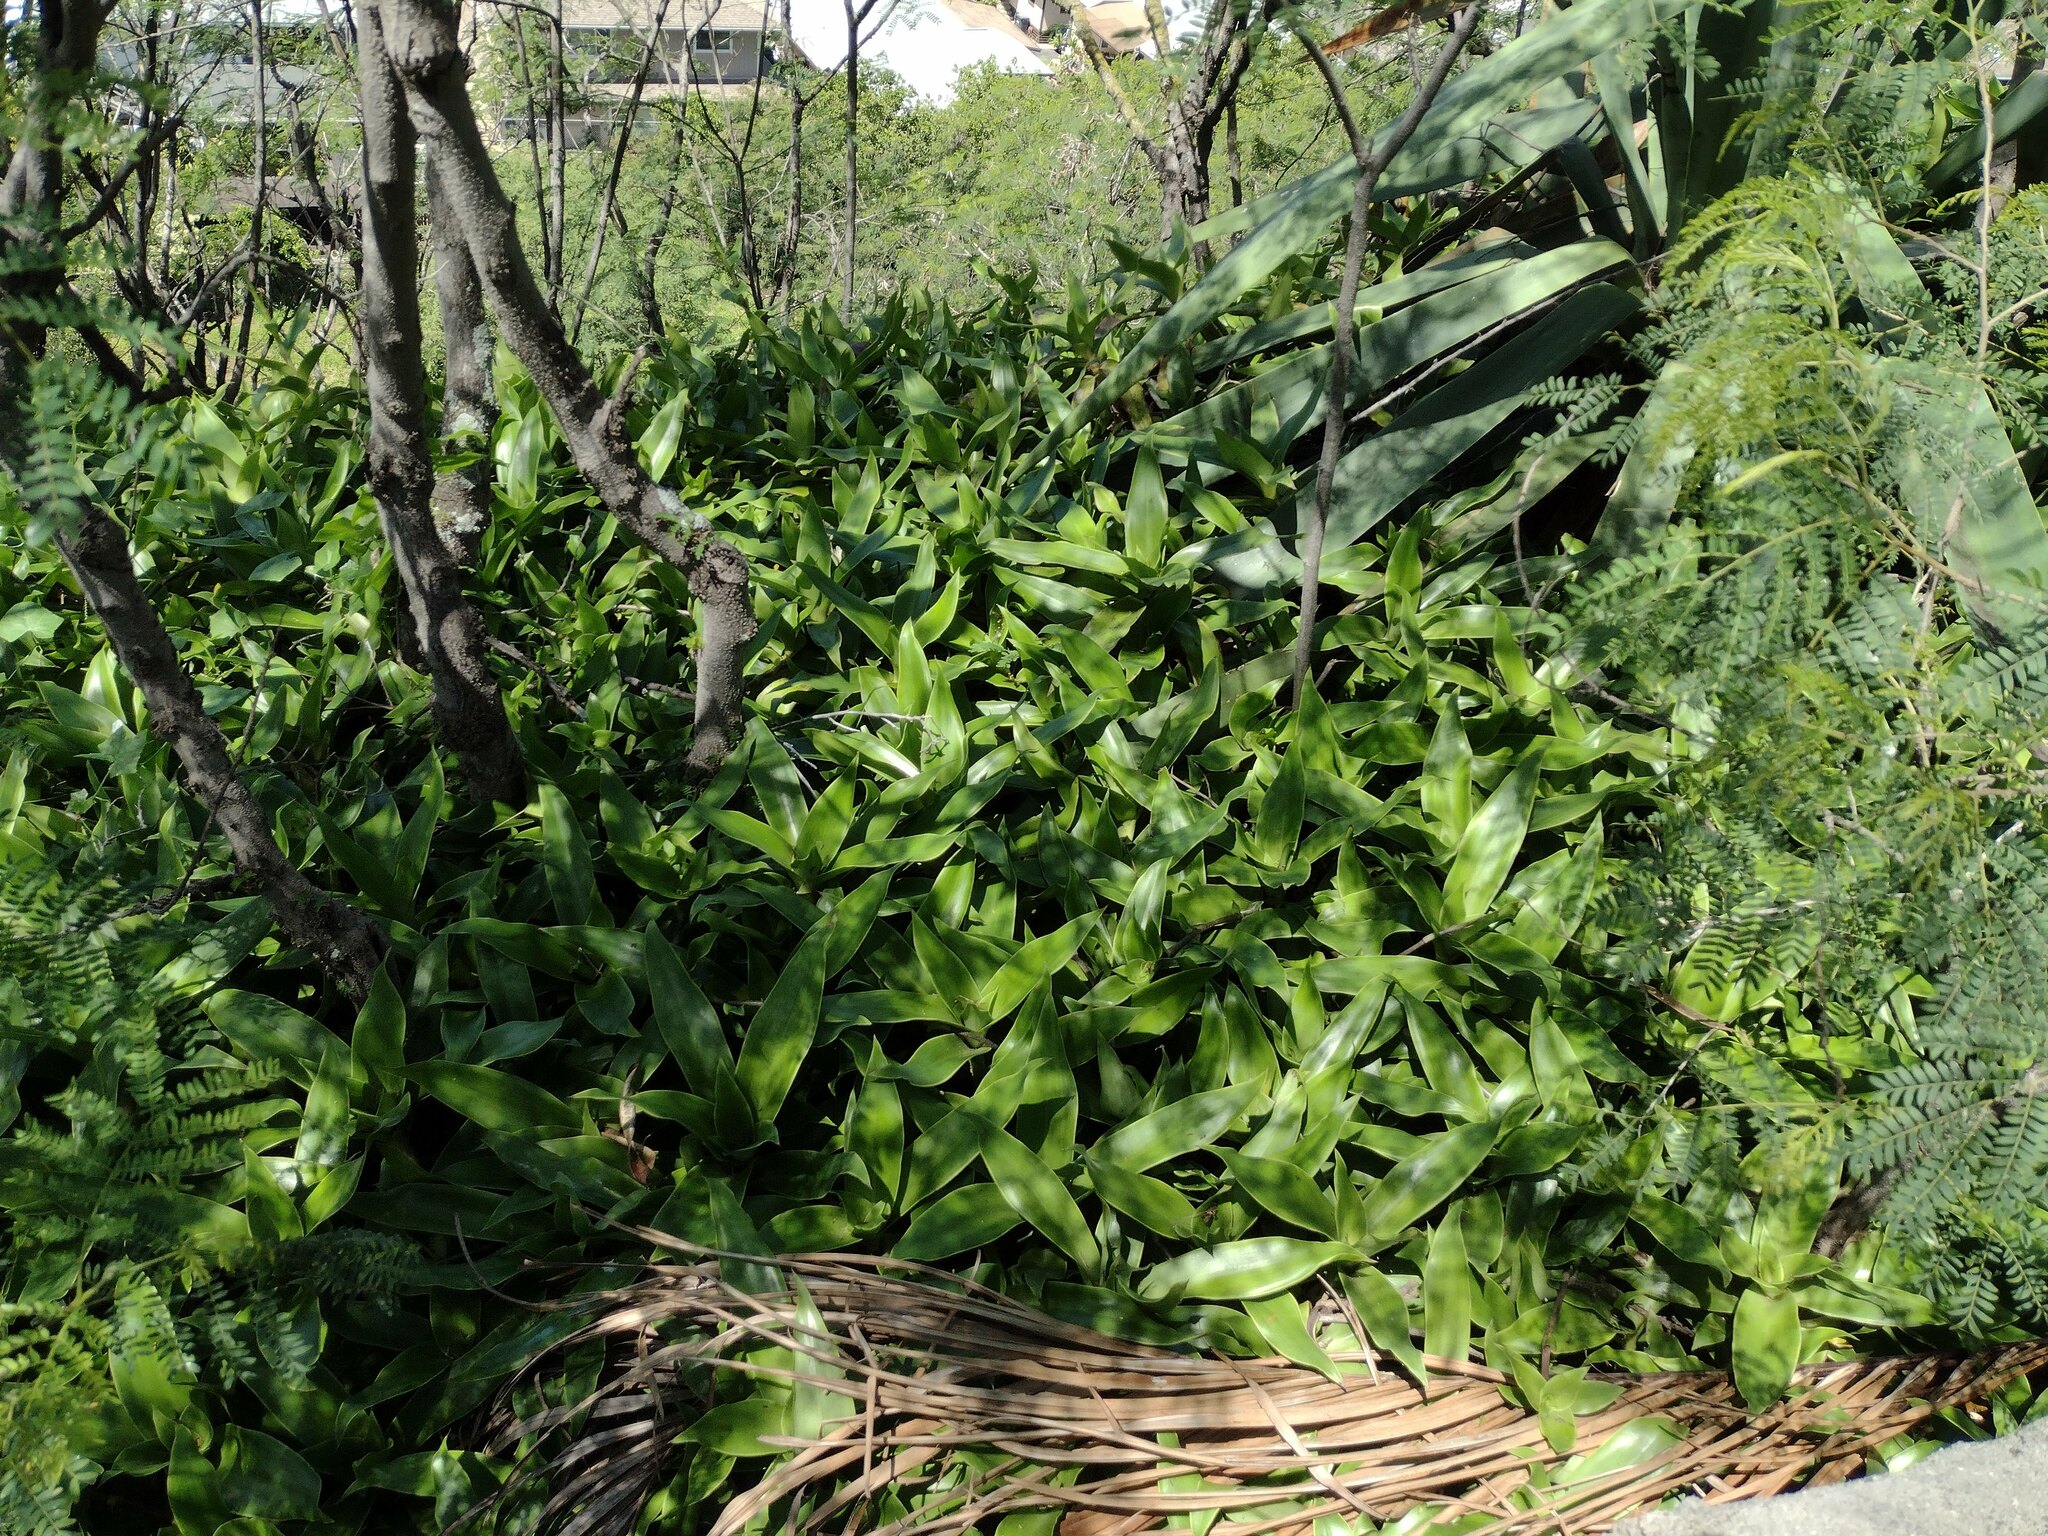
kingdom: Plantae
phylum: Tracheophyta
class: Liliopsida
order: Commelinales
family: Commelinaceae
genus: Callisia
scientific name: Callisia fragrans
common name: Basketplant
